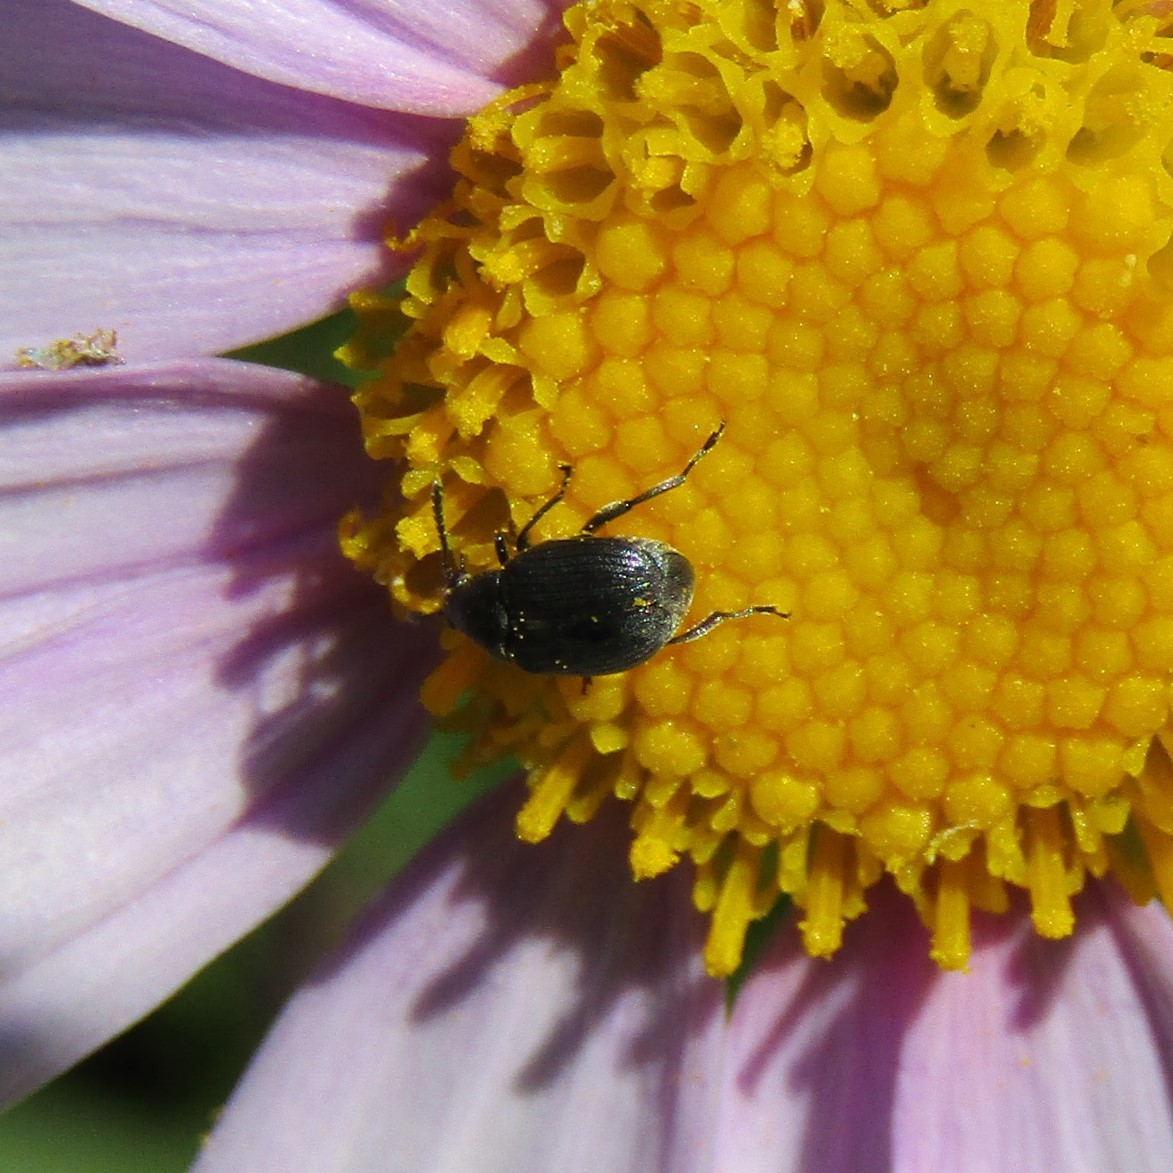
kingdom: Animalia
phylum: Arthropoda
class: Insecta
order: Coleoptera
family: Chrysomelidae
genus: Bruchidius
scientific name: Bruchidius villosus
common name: Scotch broom bruchid
